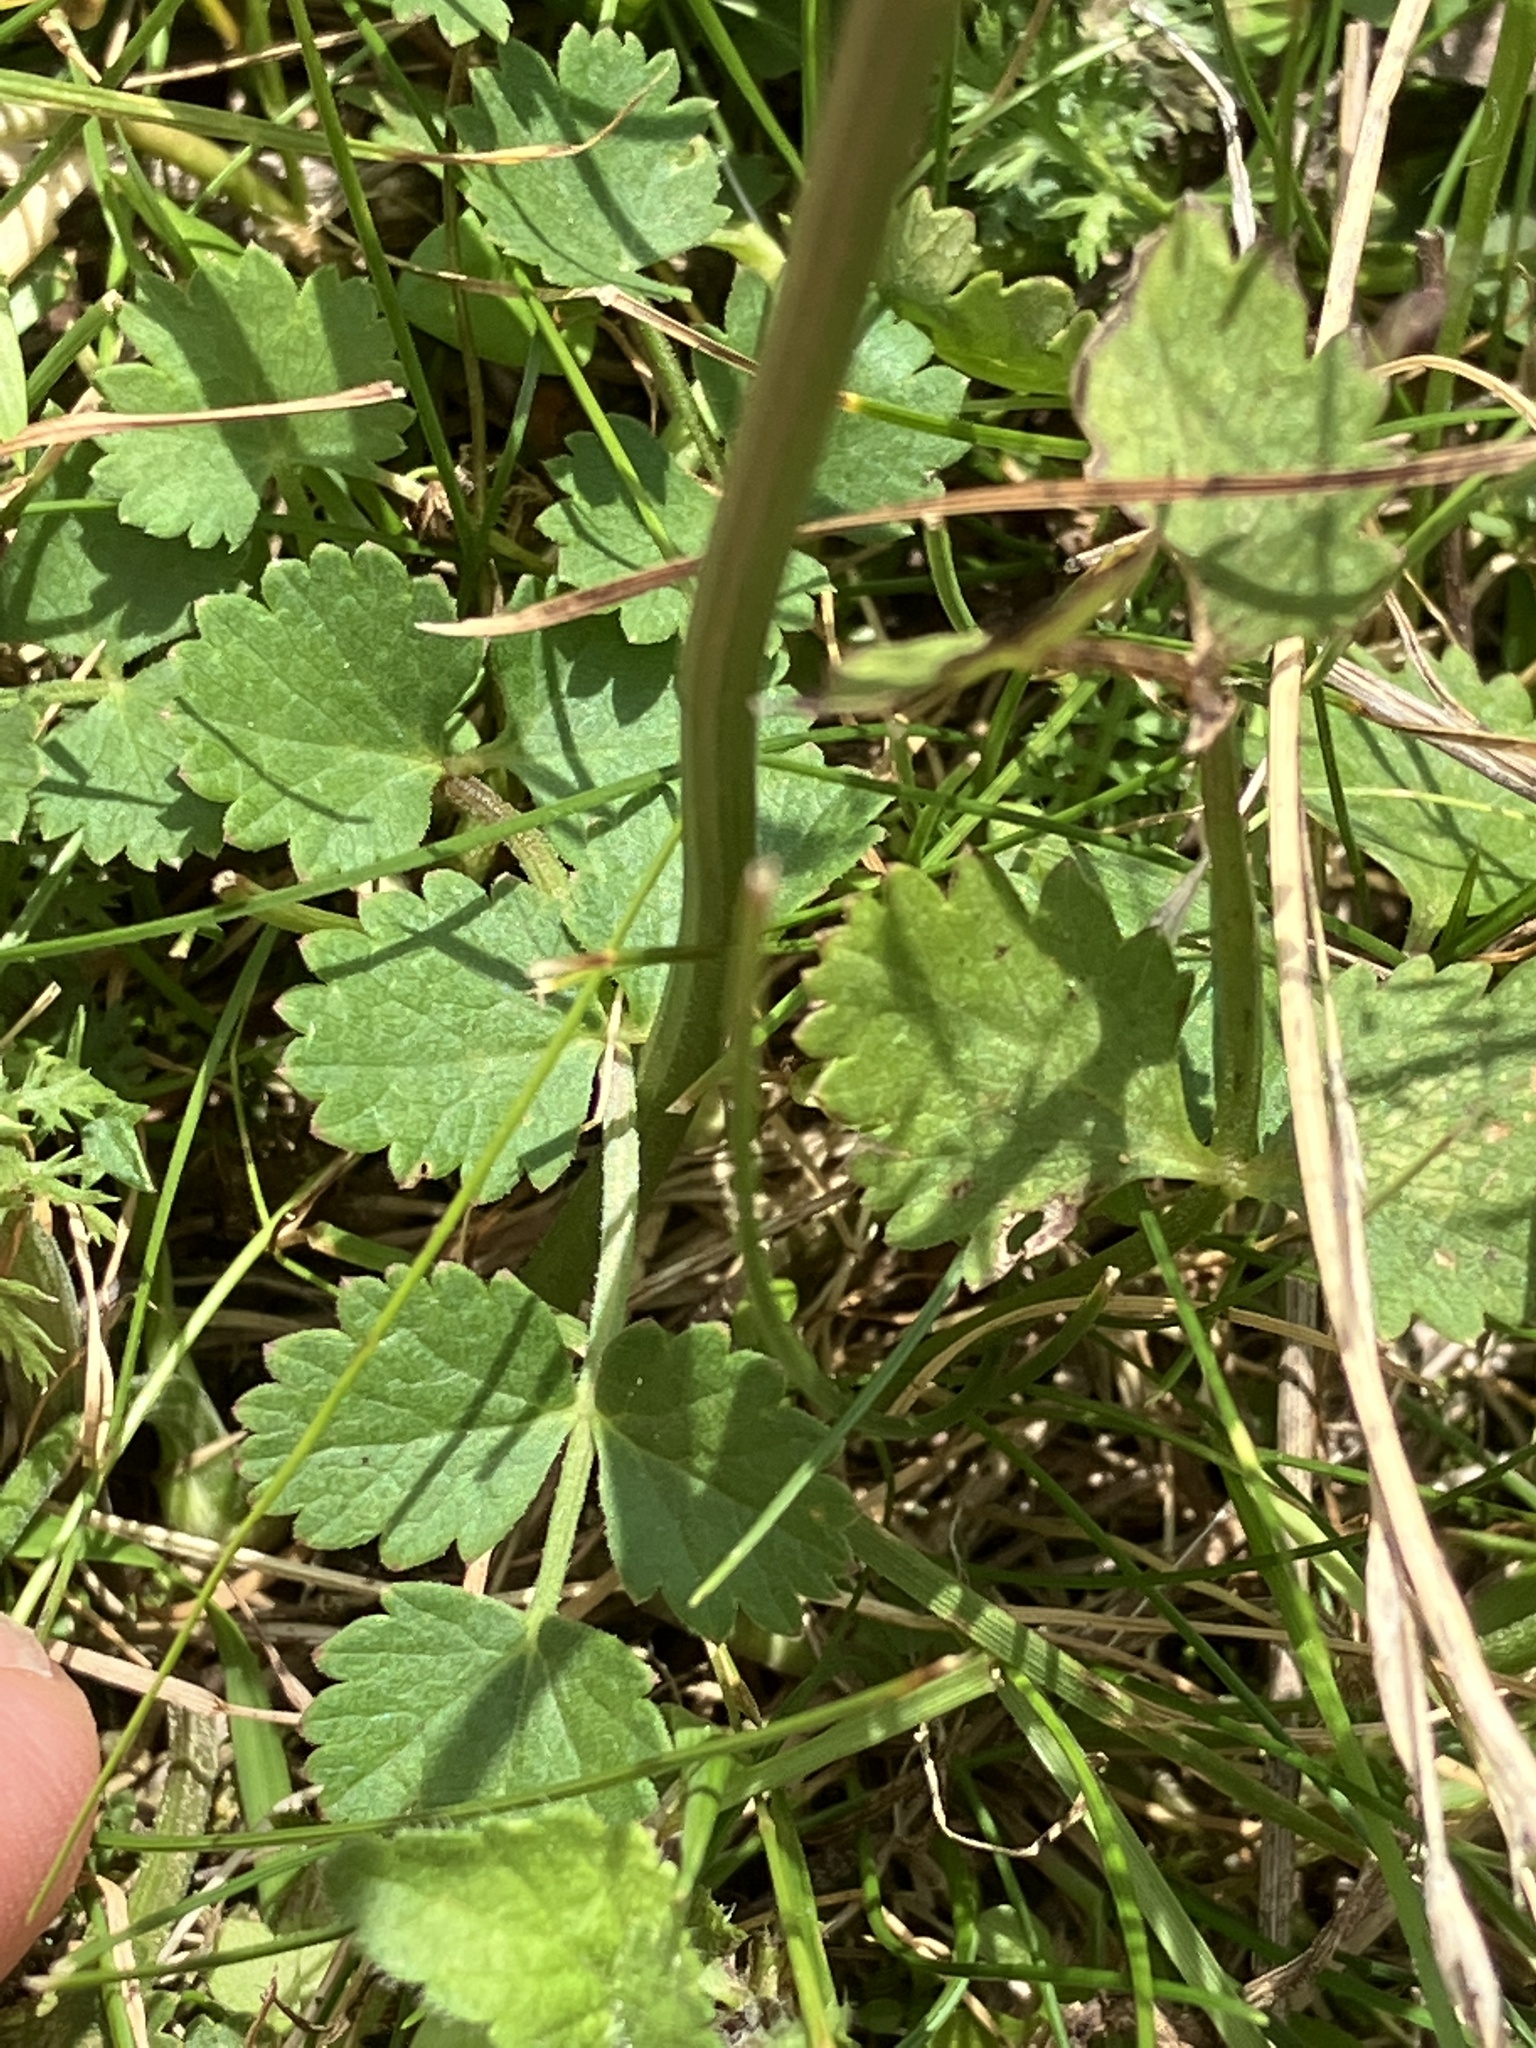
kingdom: Plantae
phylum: Tracheophyta
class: Magnoliopsida
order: Apiales
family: Apiaceae
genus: Pimpinella
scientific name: Pimpinella saxifraga
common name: Burnet-saxifrage
